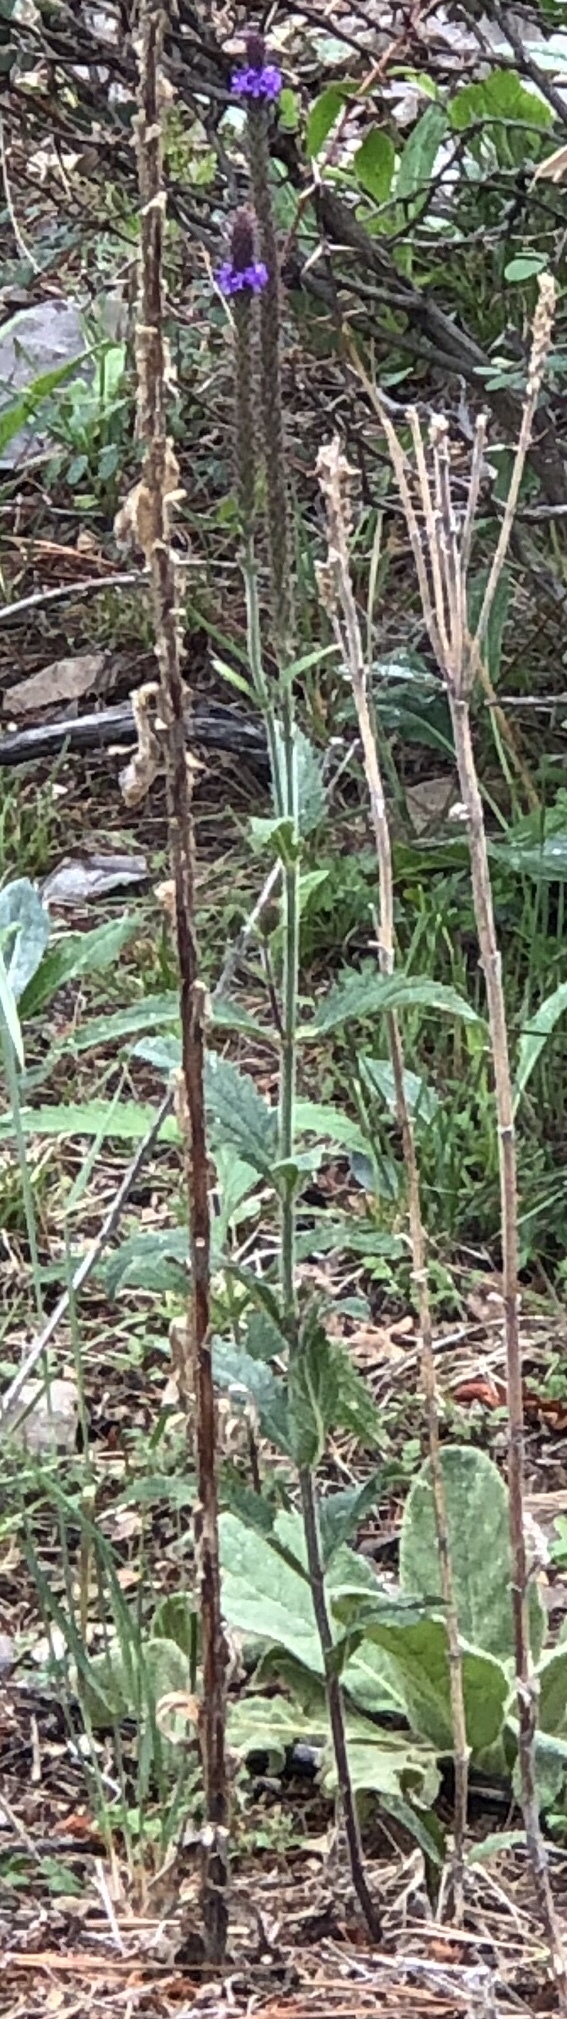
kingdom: Plantae
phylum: Tracheophyta
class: Magnoliopsida
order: Lamiales
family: Verbenaceae
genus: Verbena
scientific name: Verbena macdougalii
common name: New mexico vervain
